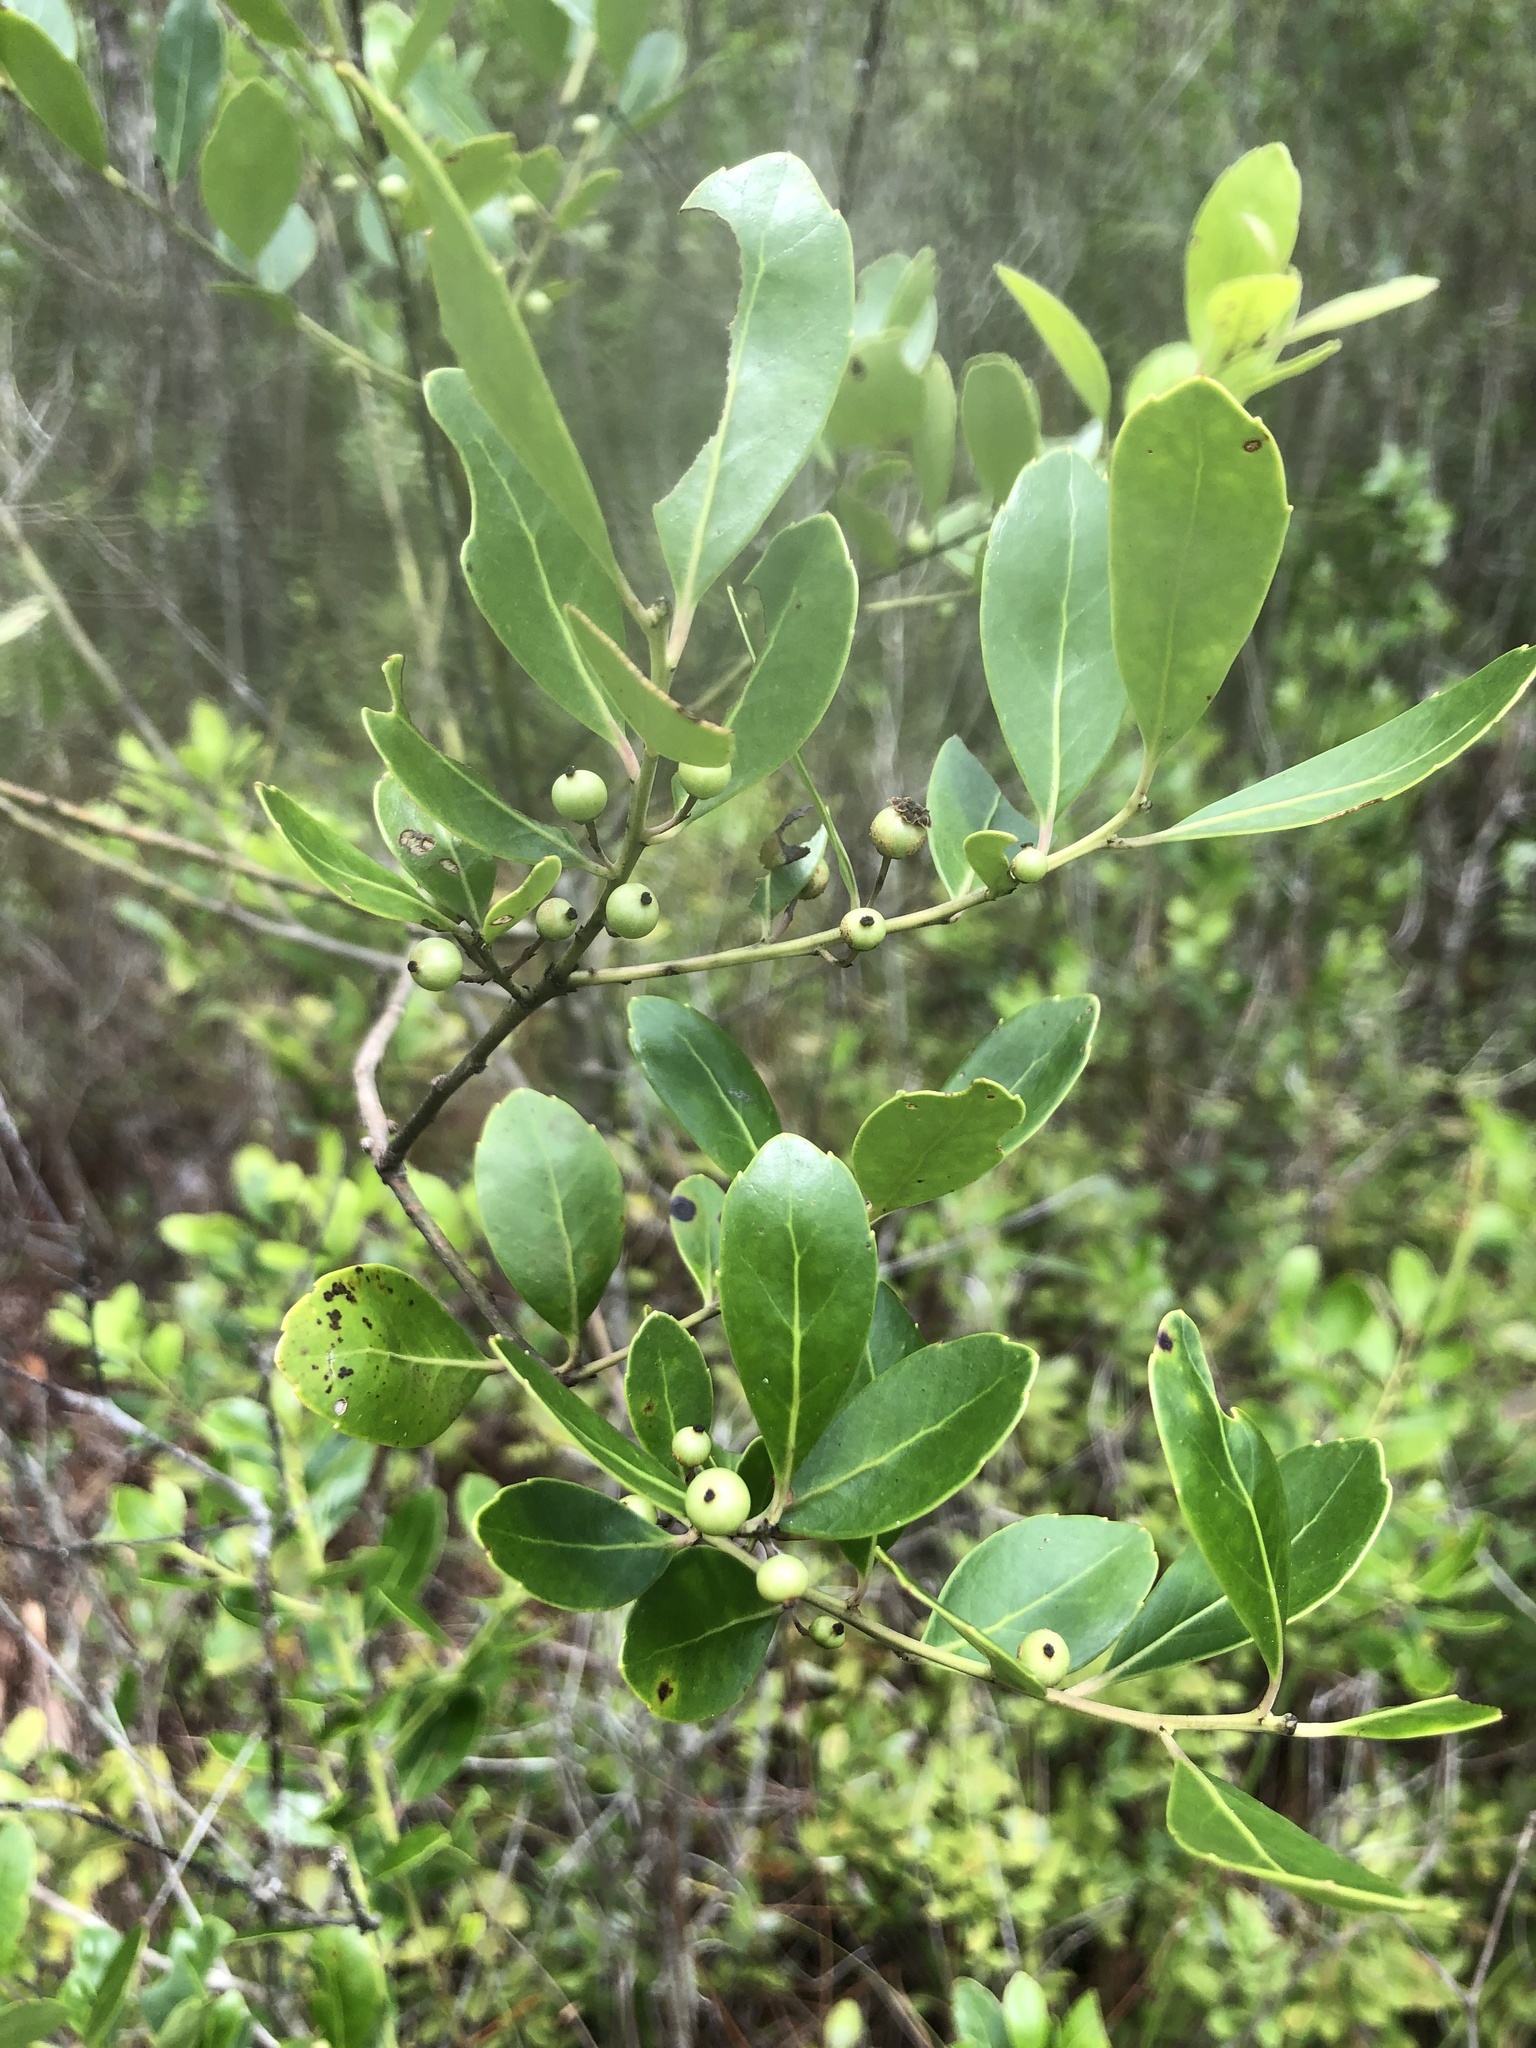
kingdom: Plantae
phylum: Tracheophyta
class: Magnoliopsida
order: Aquifoliales
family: Aquifoliaceae
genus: Ilex
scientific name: Ilex glabra
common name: Bitter gallberry
